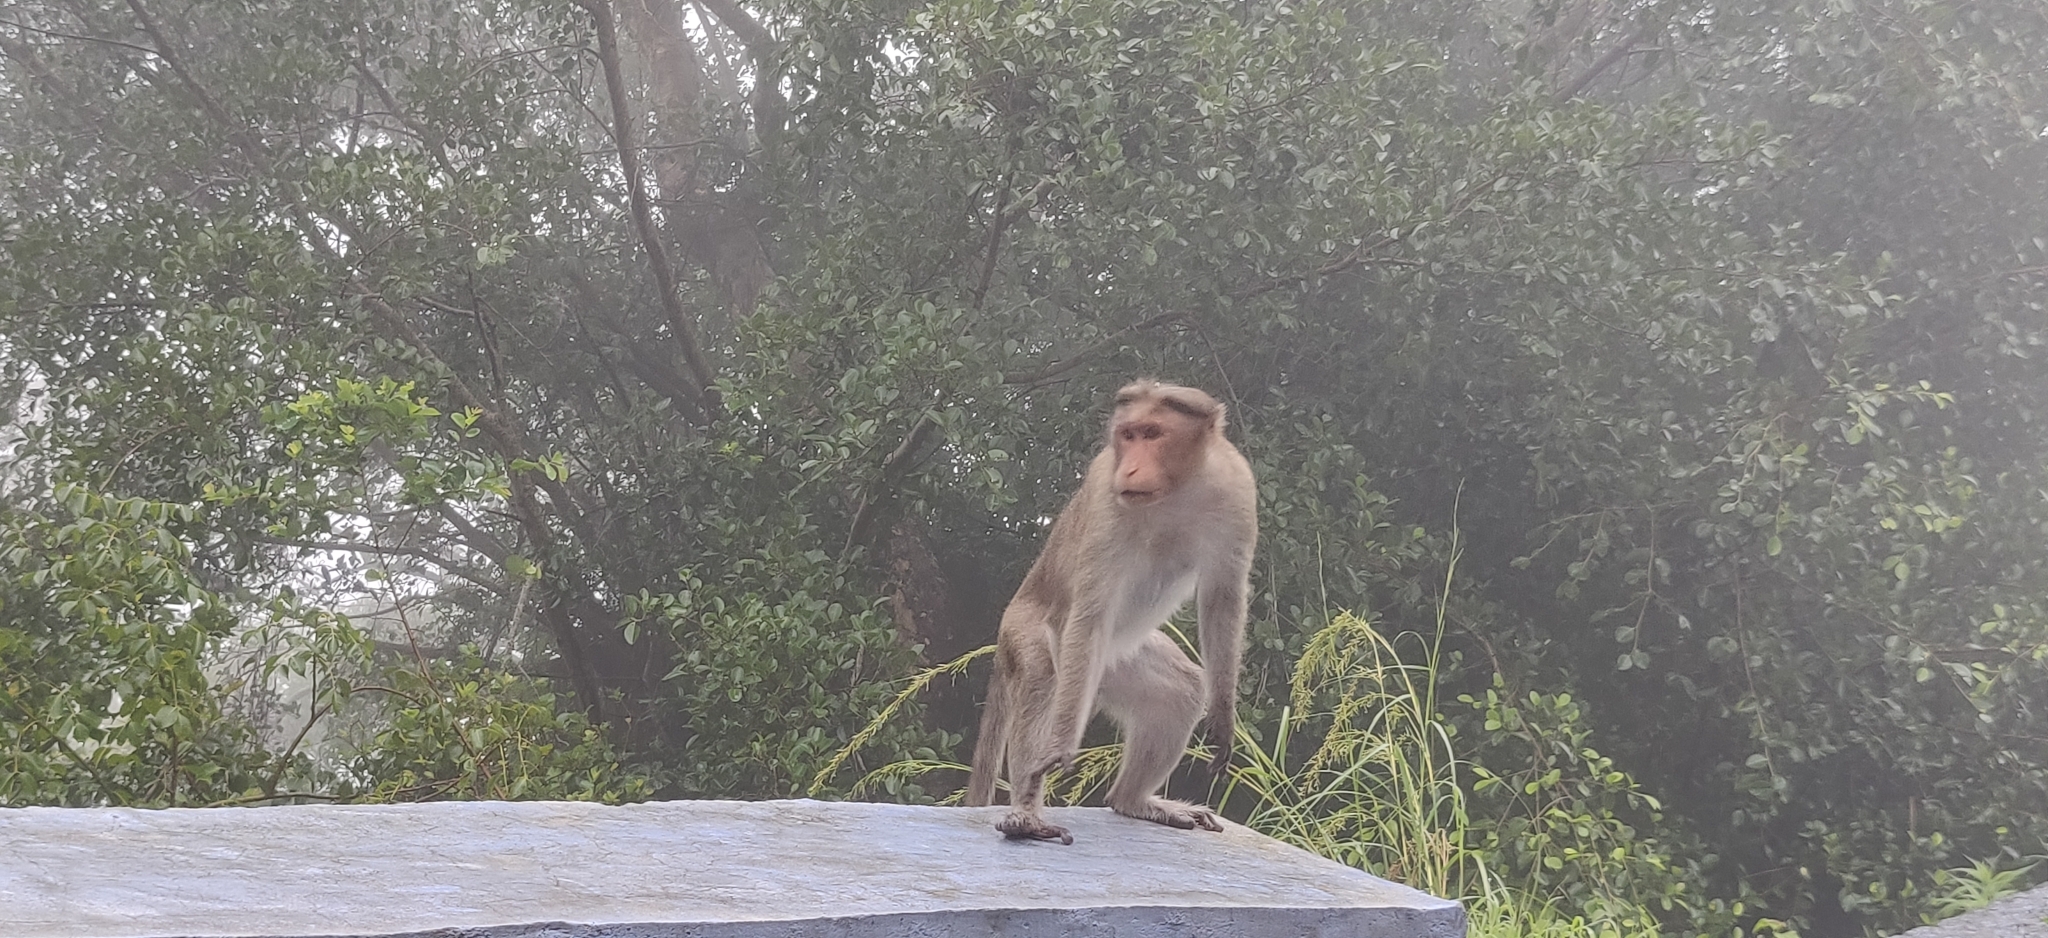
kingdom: Animalia
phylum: Chordata
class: Mammalia
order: Primates
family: Cercopithecidae
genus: Macaca
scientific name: Macaca radiata
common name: Bonnet macaque
